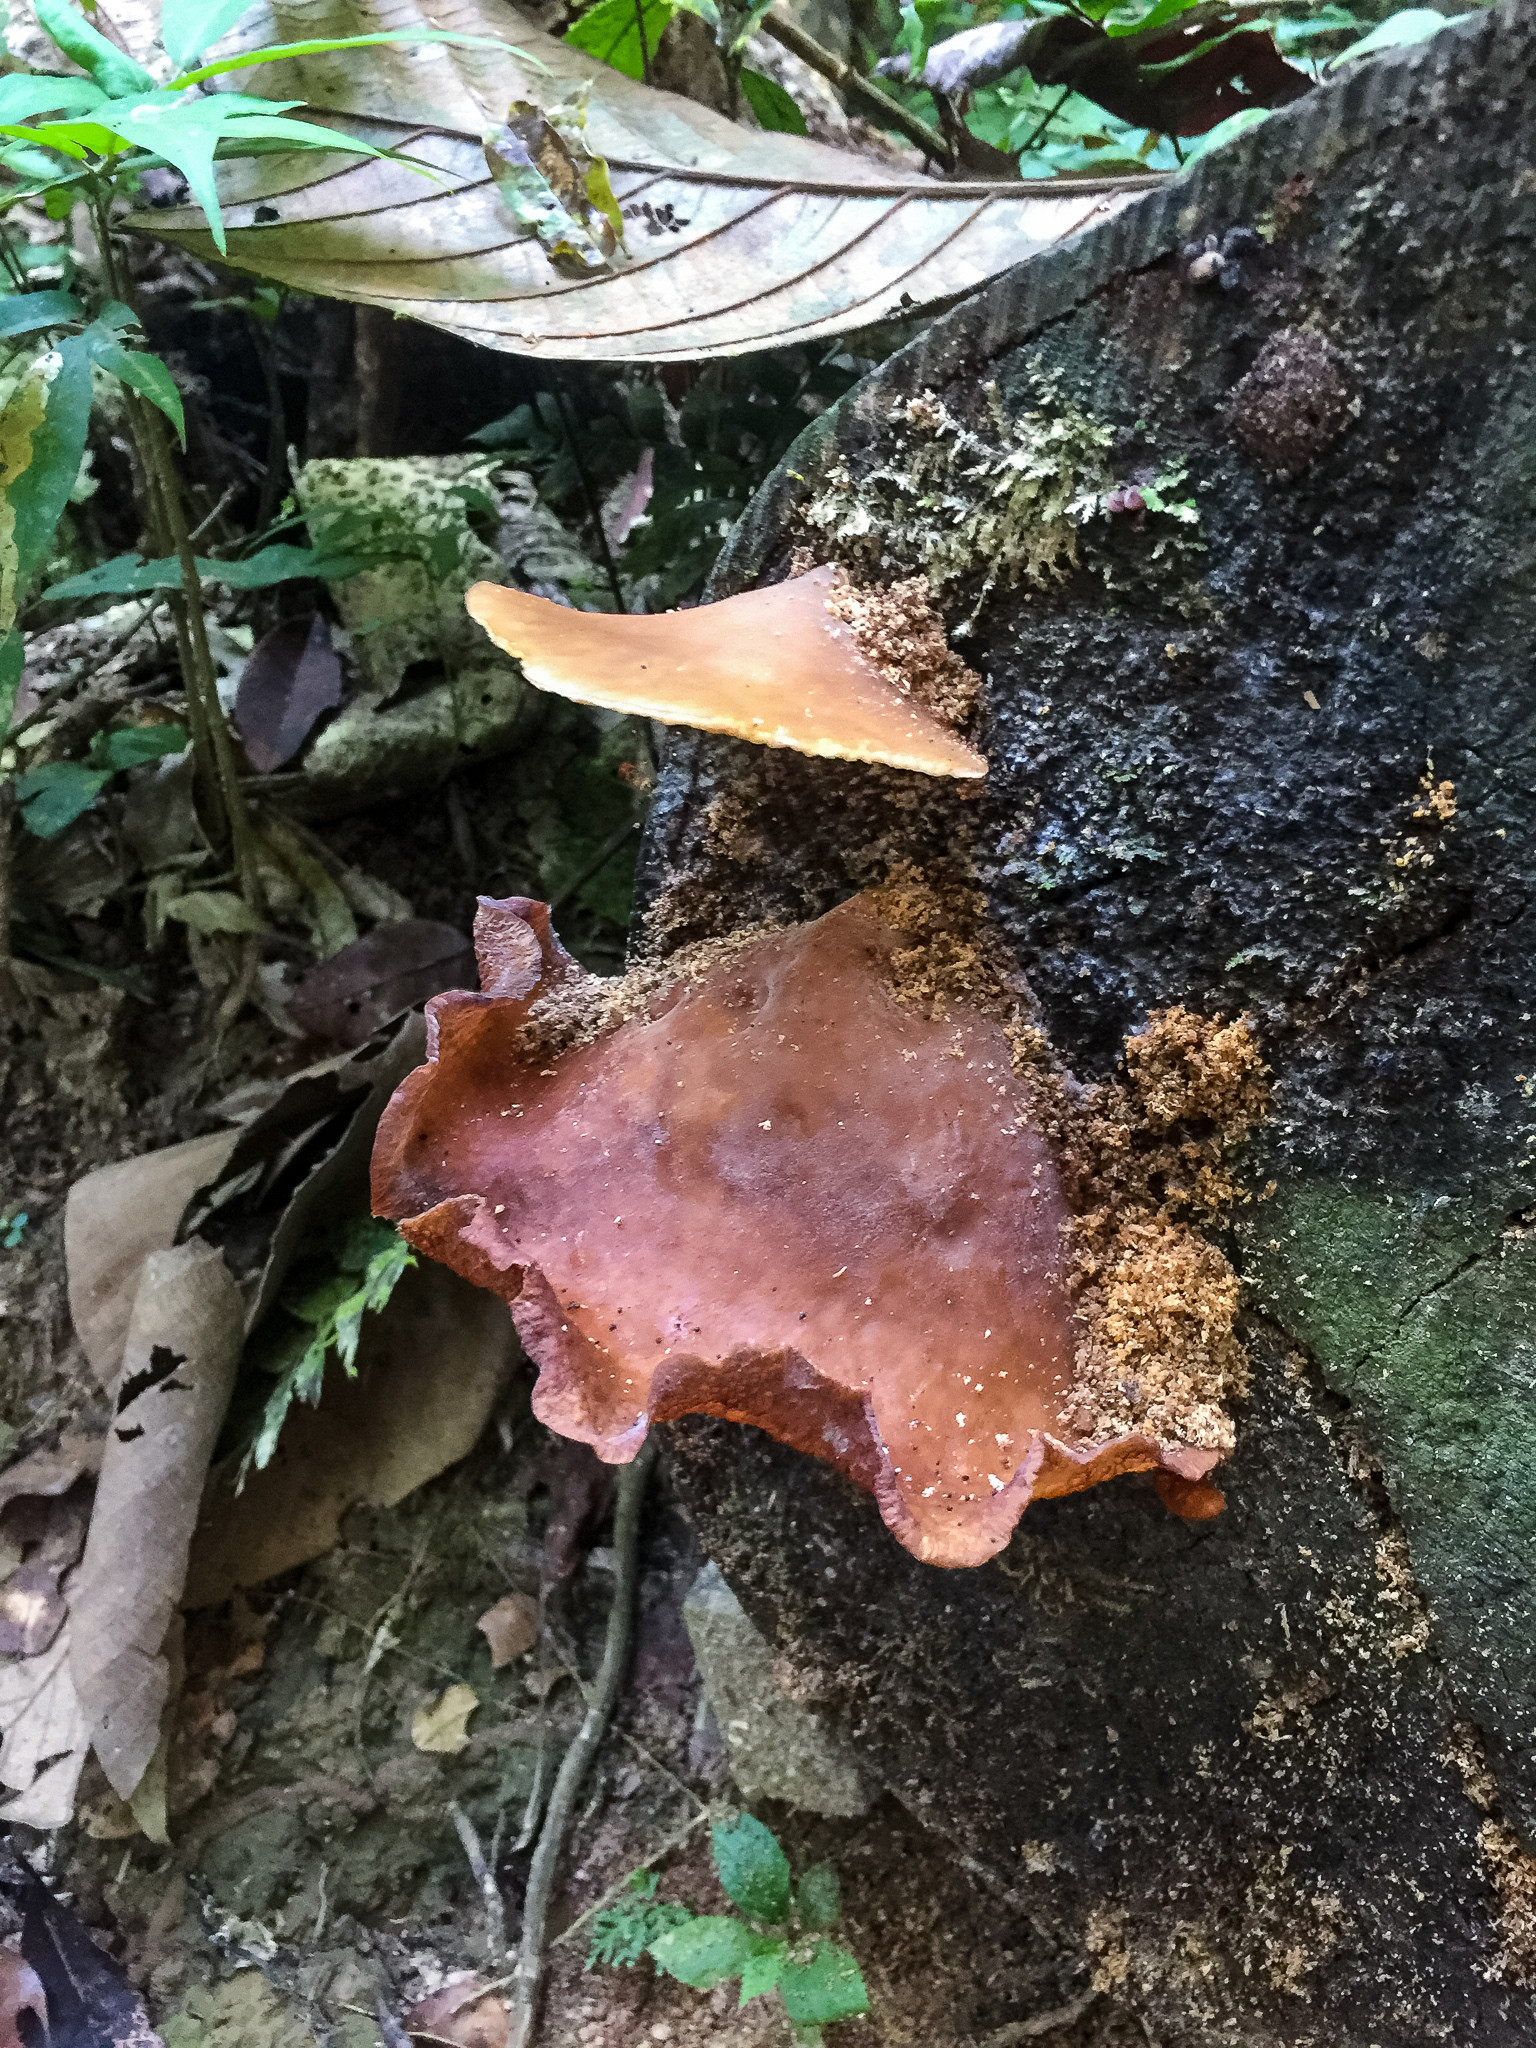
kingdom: Fungi
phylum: Basidiomycota
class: Agaricomycetes
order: Auriculariales
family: Auriculariaceae
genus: Auricularia
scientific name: Auricularia delicata
